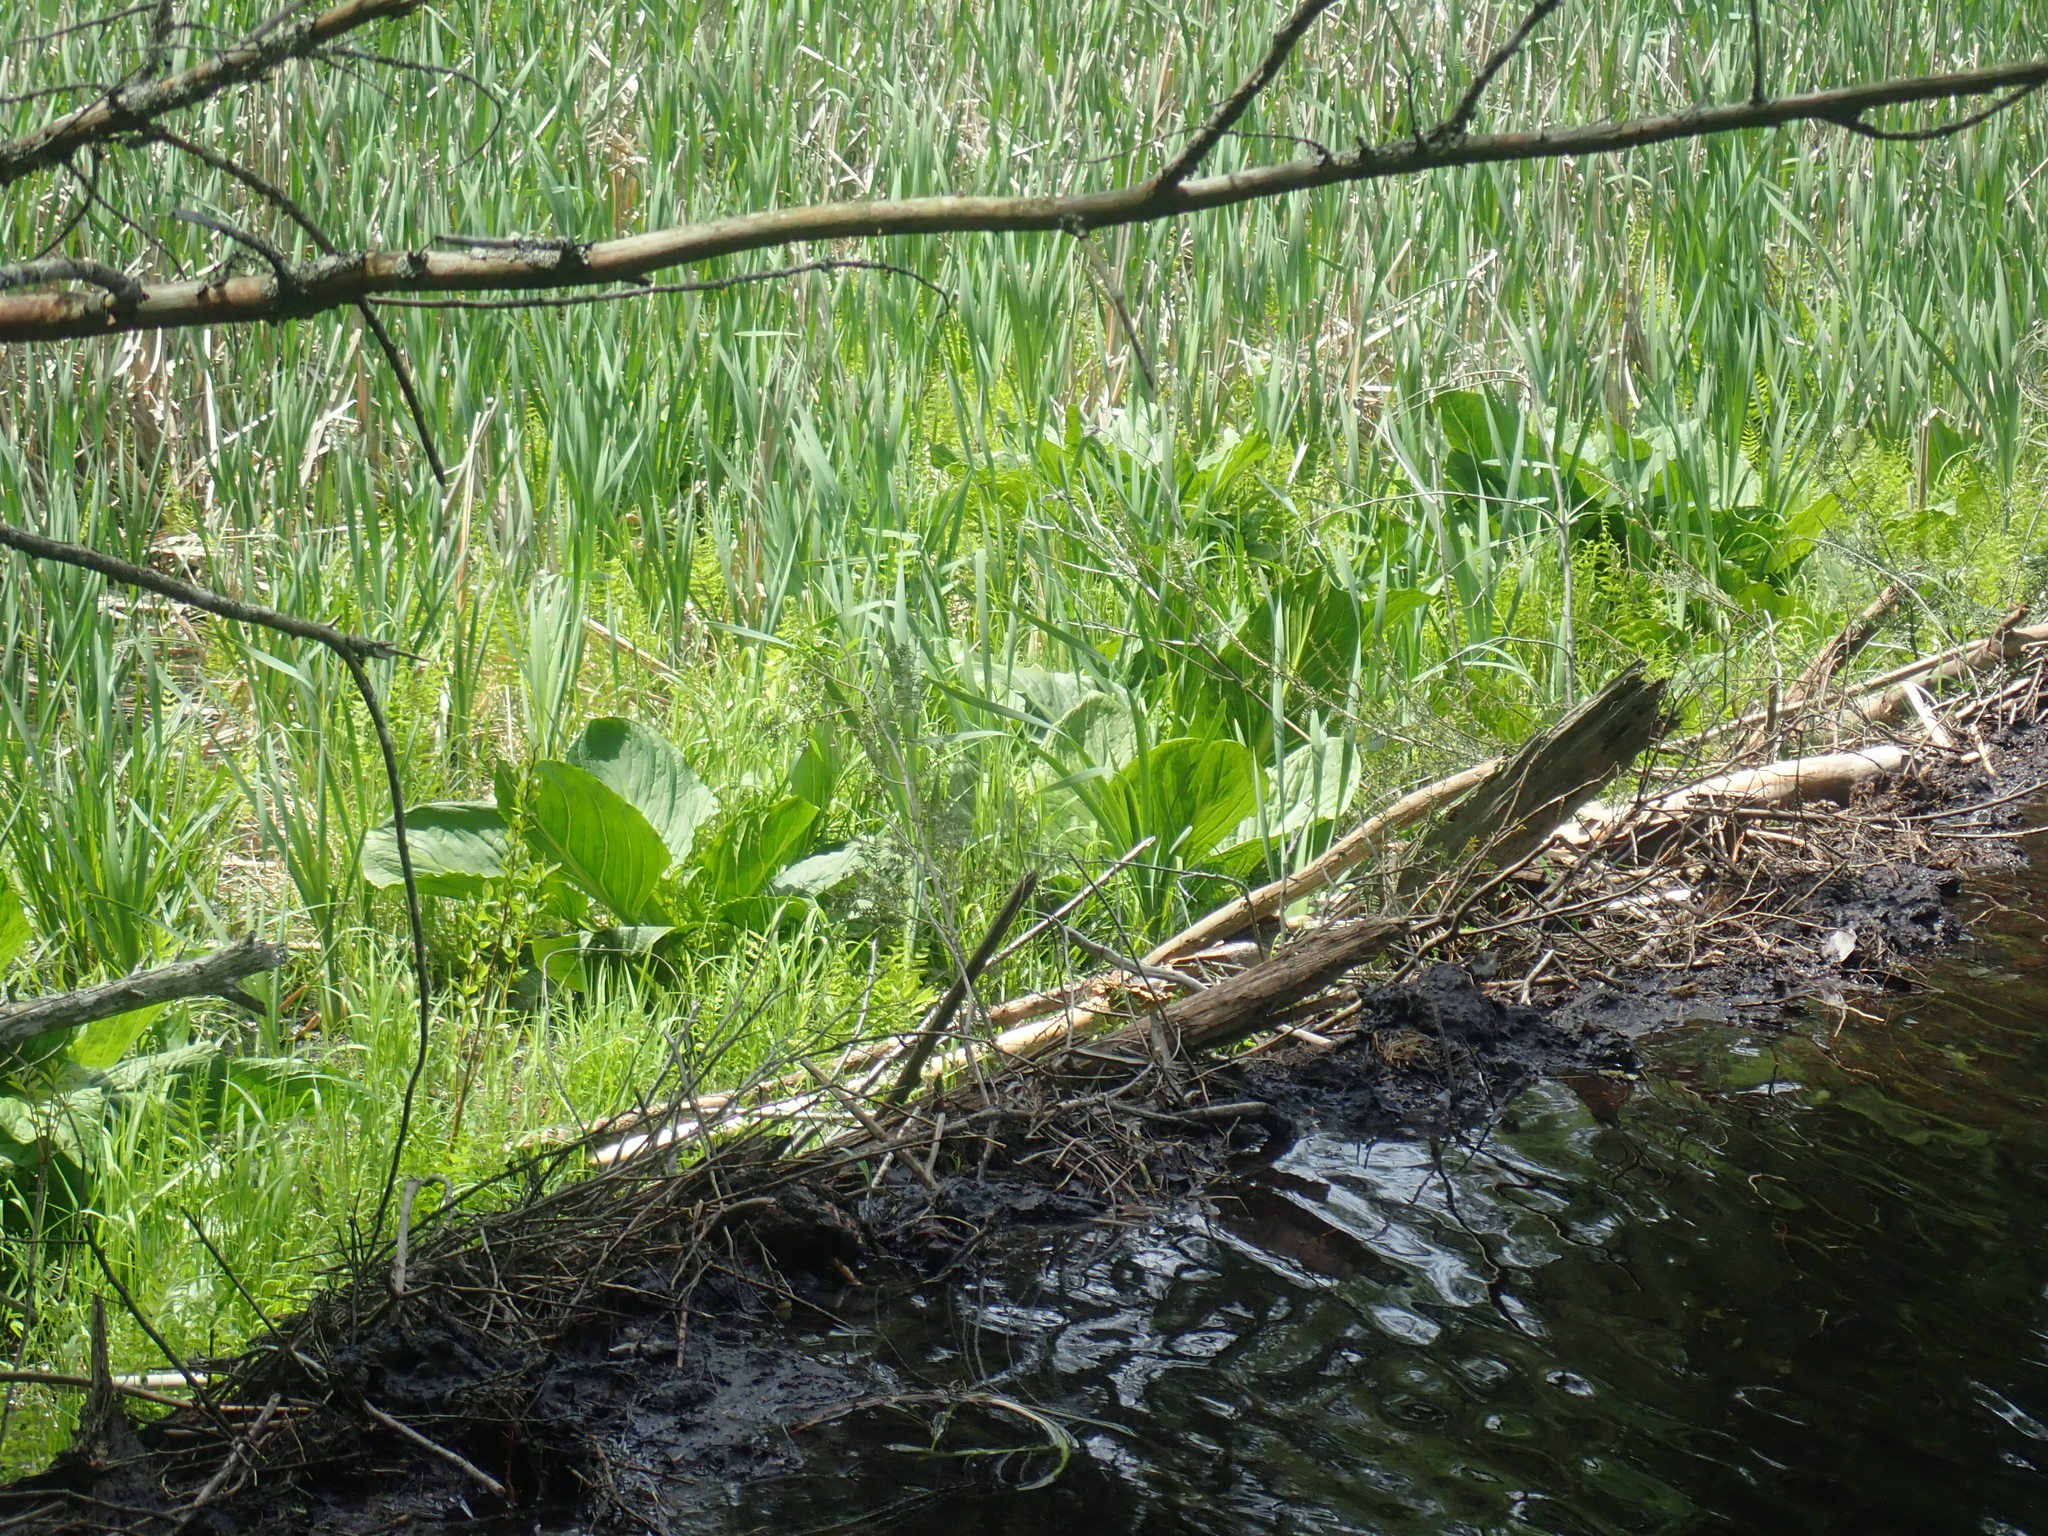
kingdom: Plantae
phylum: Tracheophyta
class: Liliopsida
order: Alismatales
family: Araceae
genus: Symplocarpus
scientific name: Symplocarpus foetidus
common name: Eastern skunk cabbage
